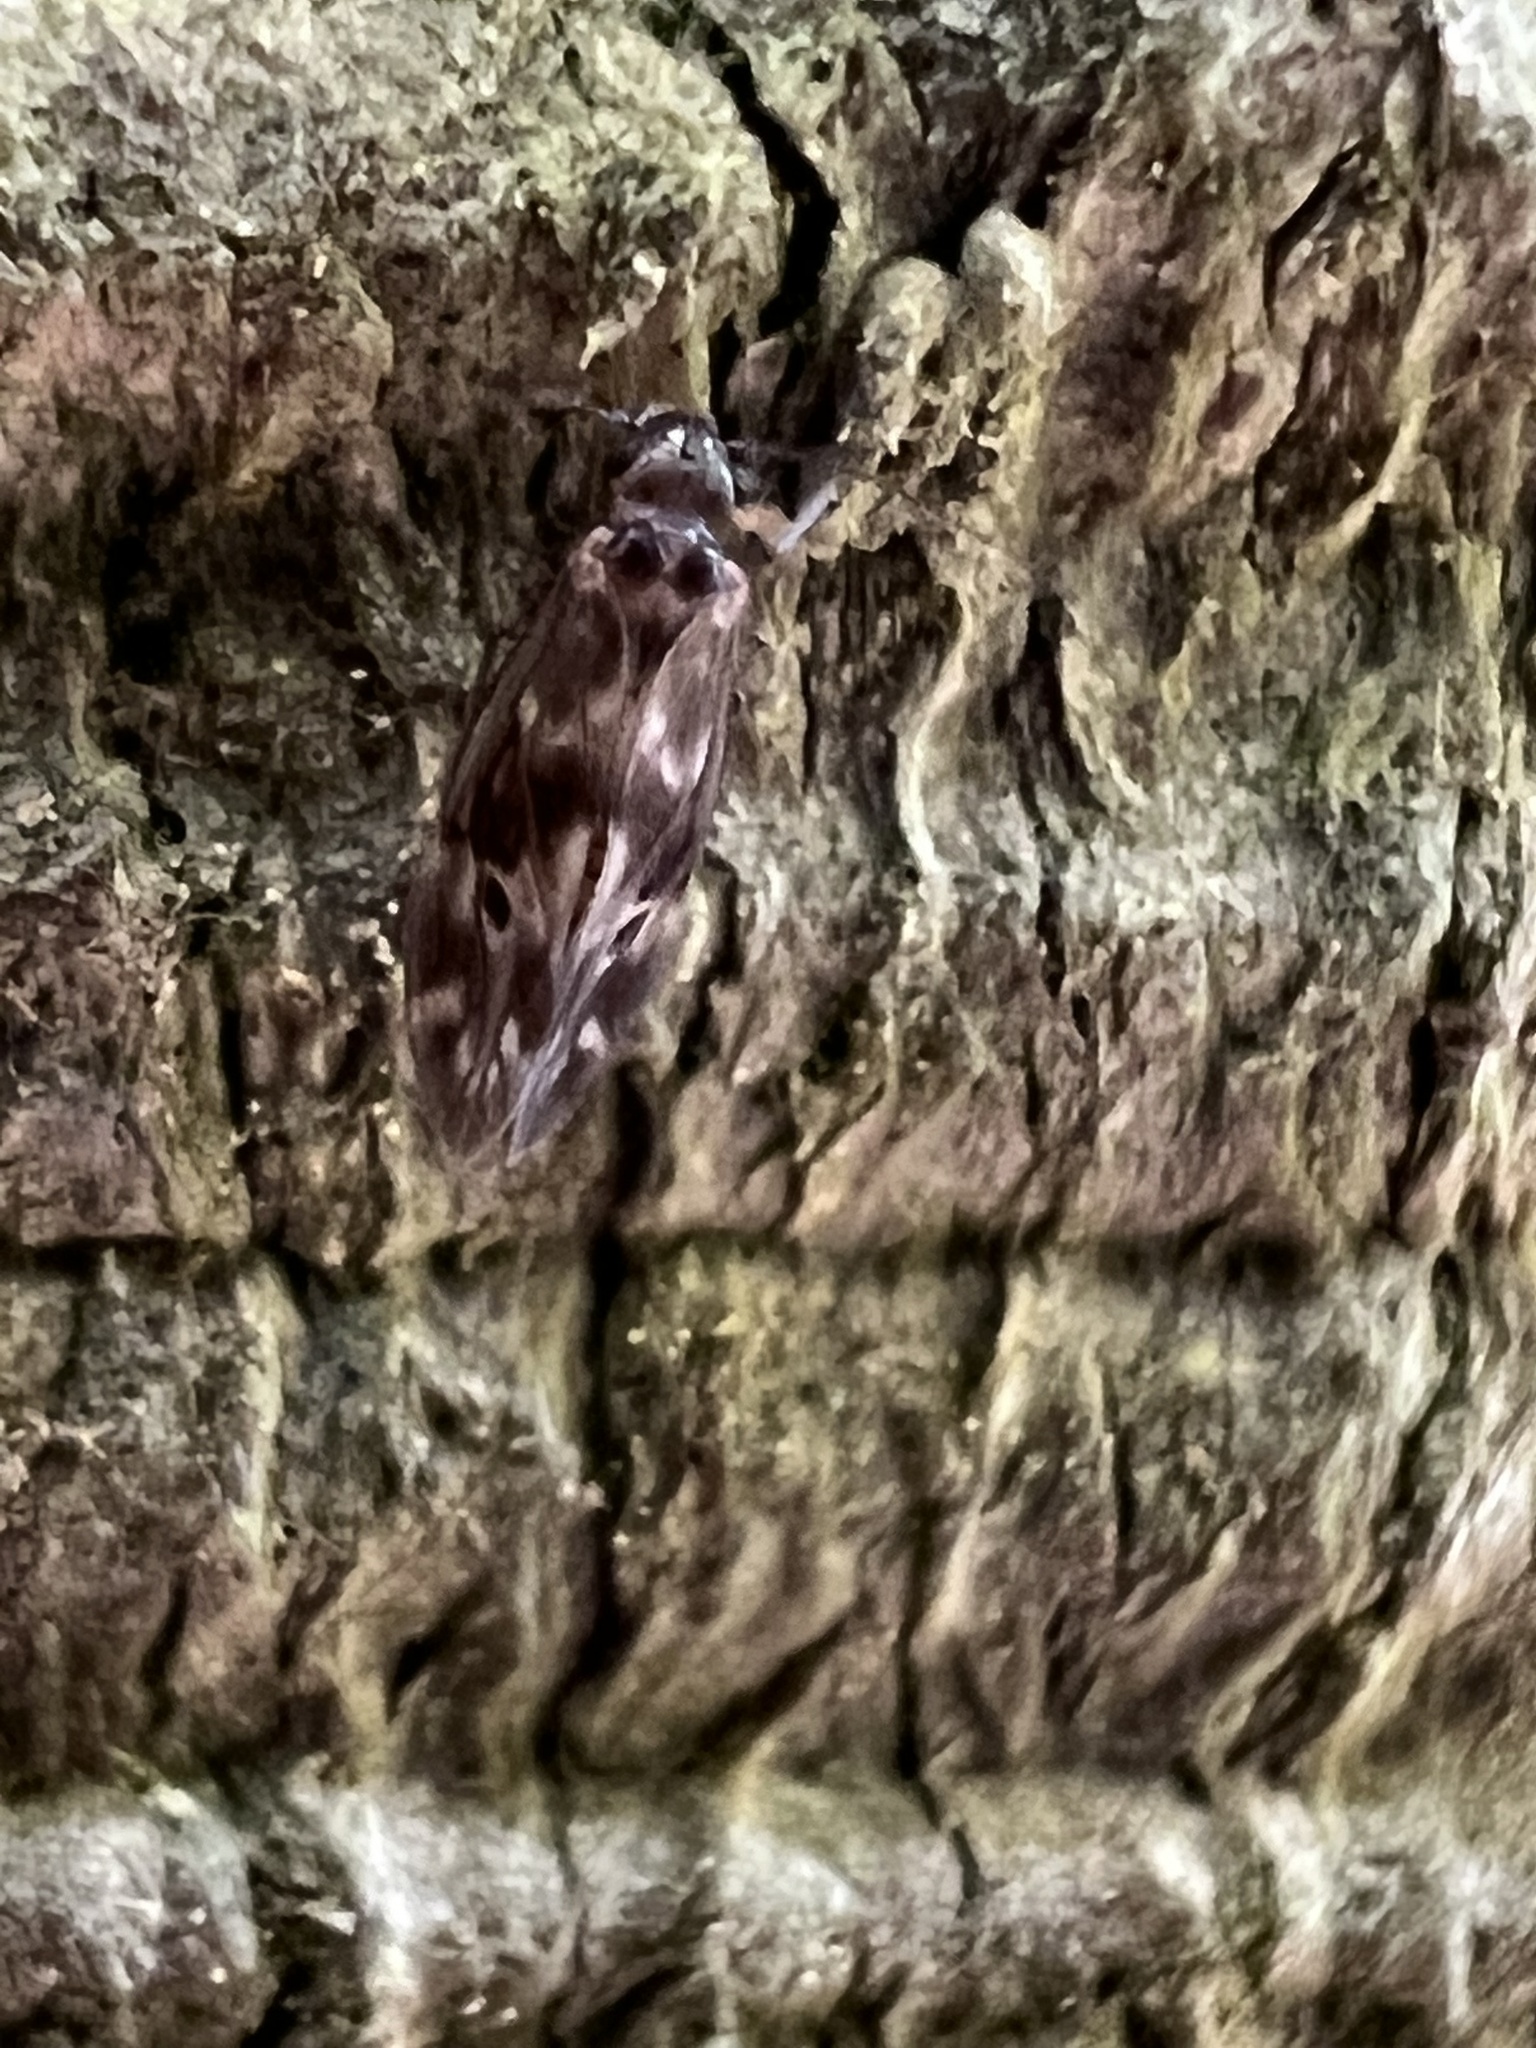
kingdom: Animalia
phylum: Arthropoda
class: Insecta
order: Psocodea
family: Peripsocidae
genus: Peripsocus
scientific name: Peripsocus subfasciatus
